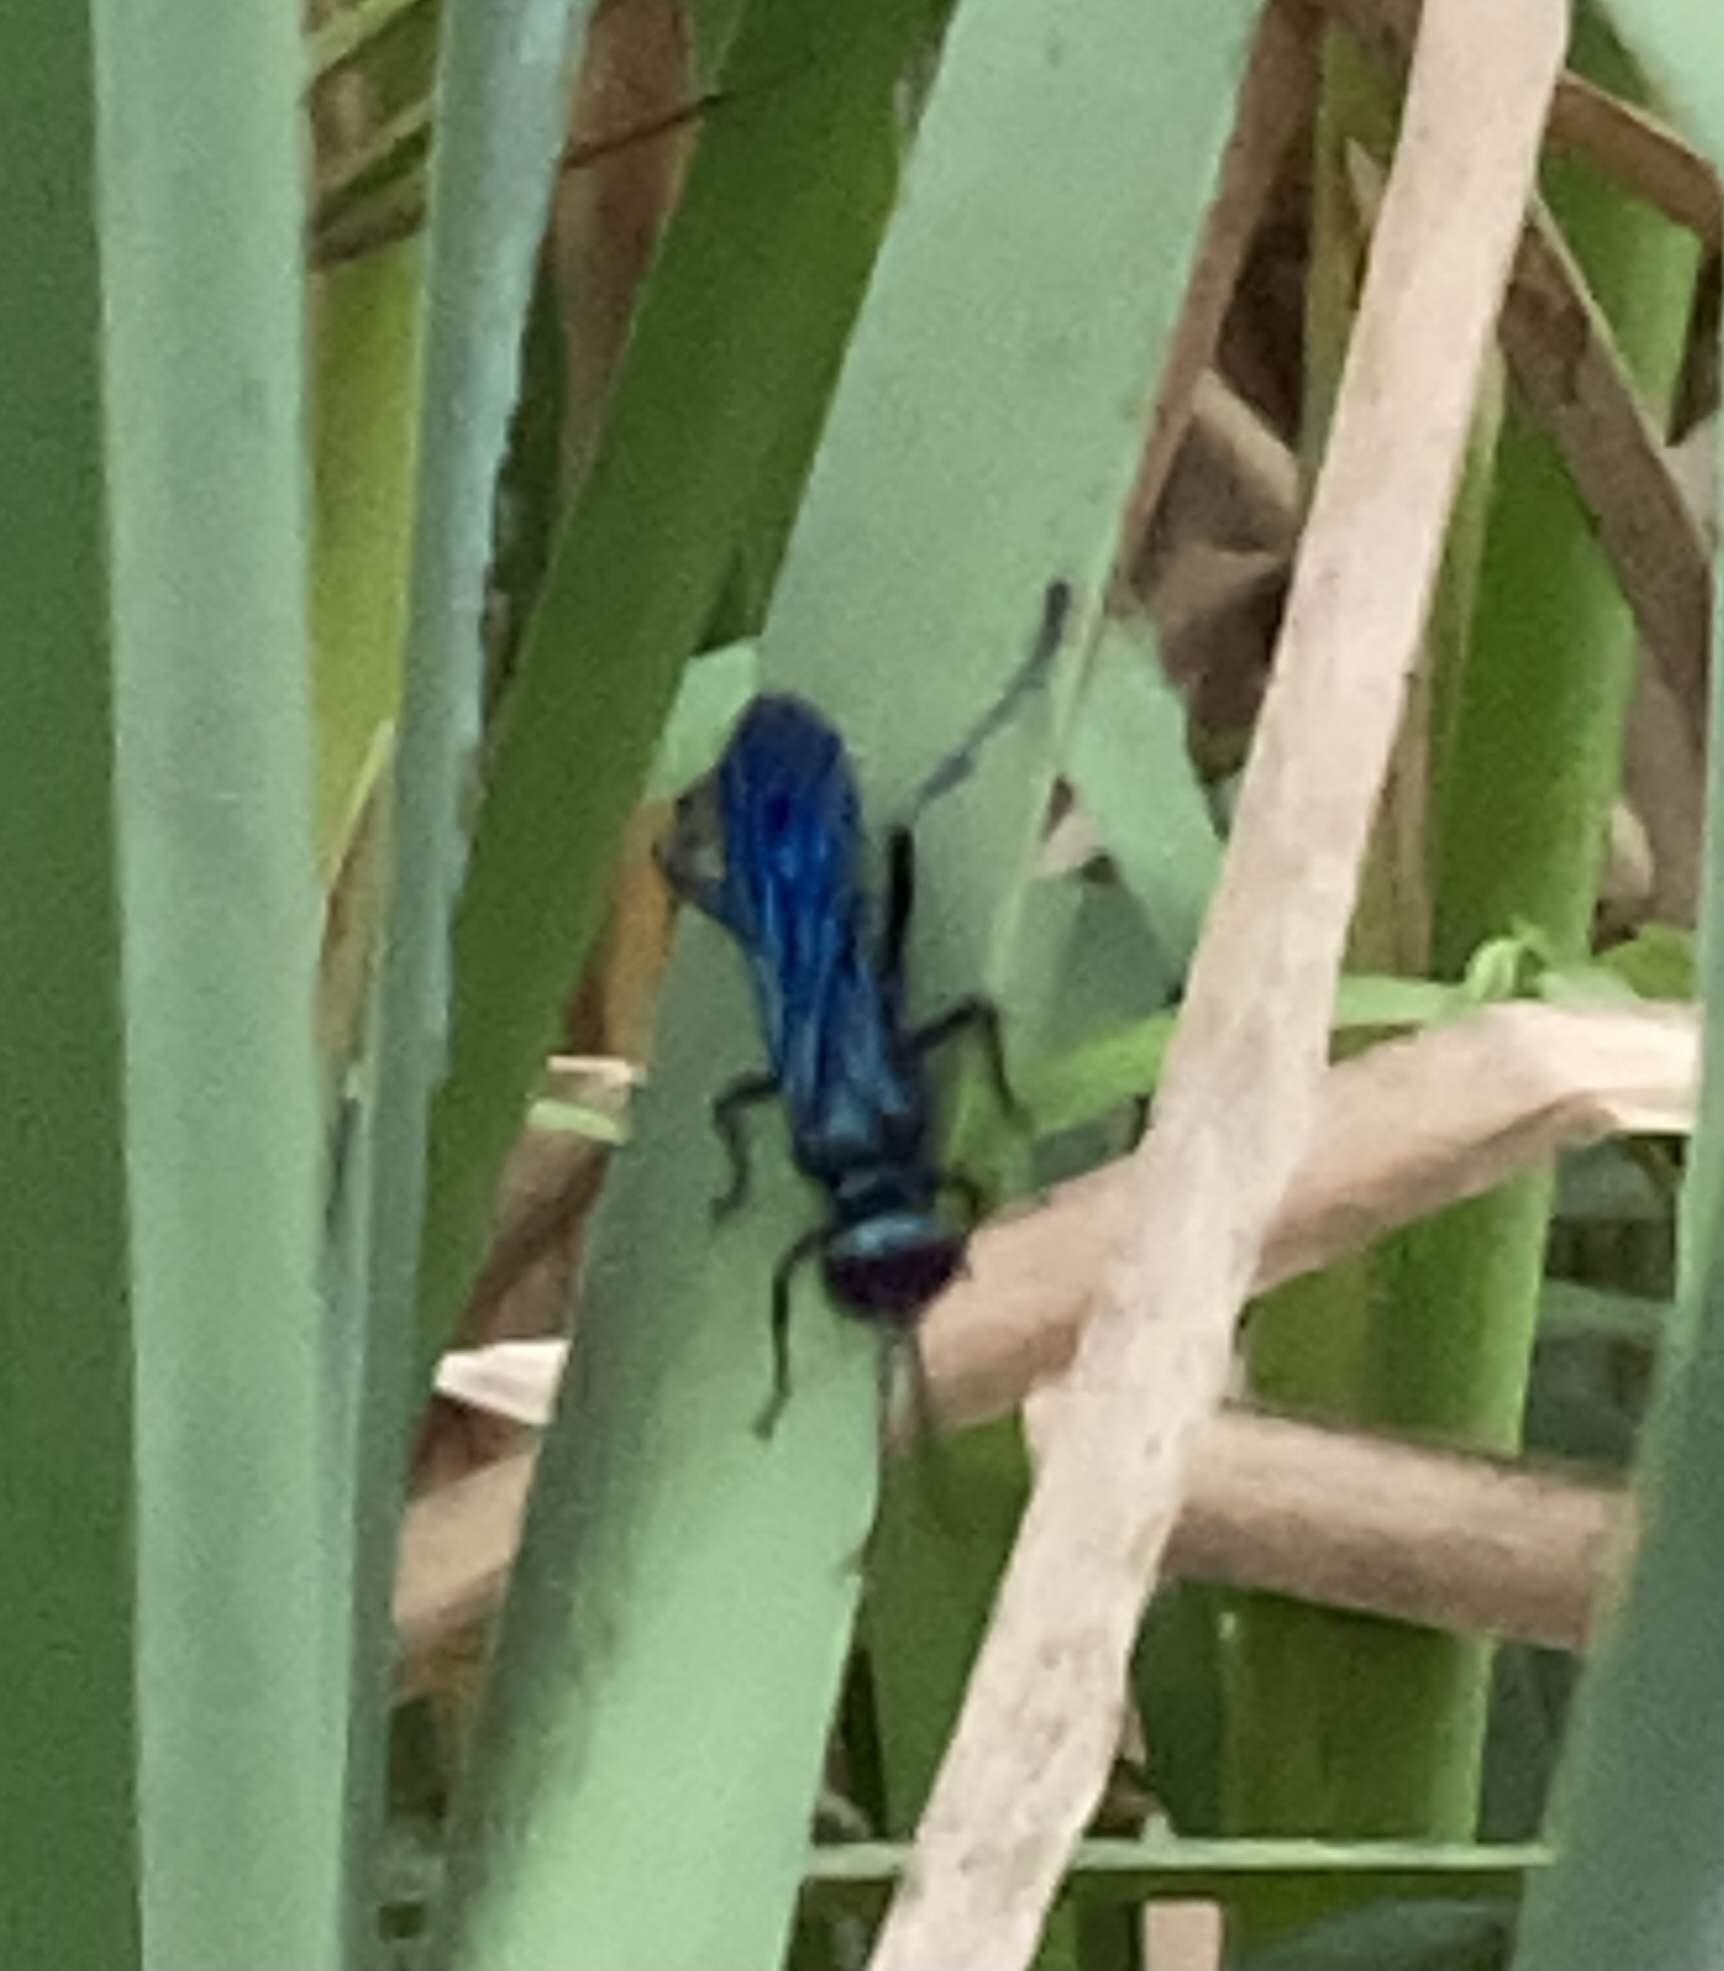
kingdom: Animalia
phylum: Arthropoda
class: Insecta
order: Hymenoptera
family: Sphecidae
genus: Chalybion
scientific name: Chalybion californicum
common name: Mud dauber
